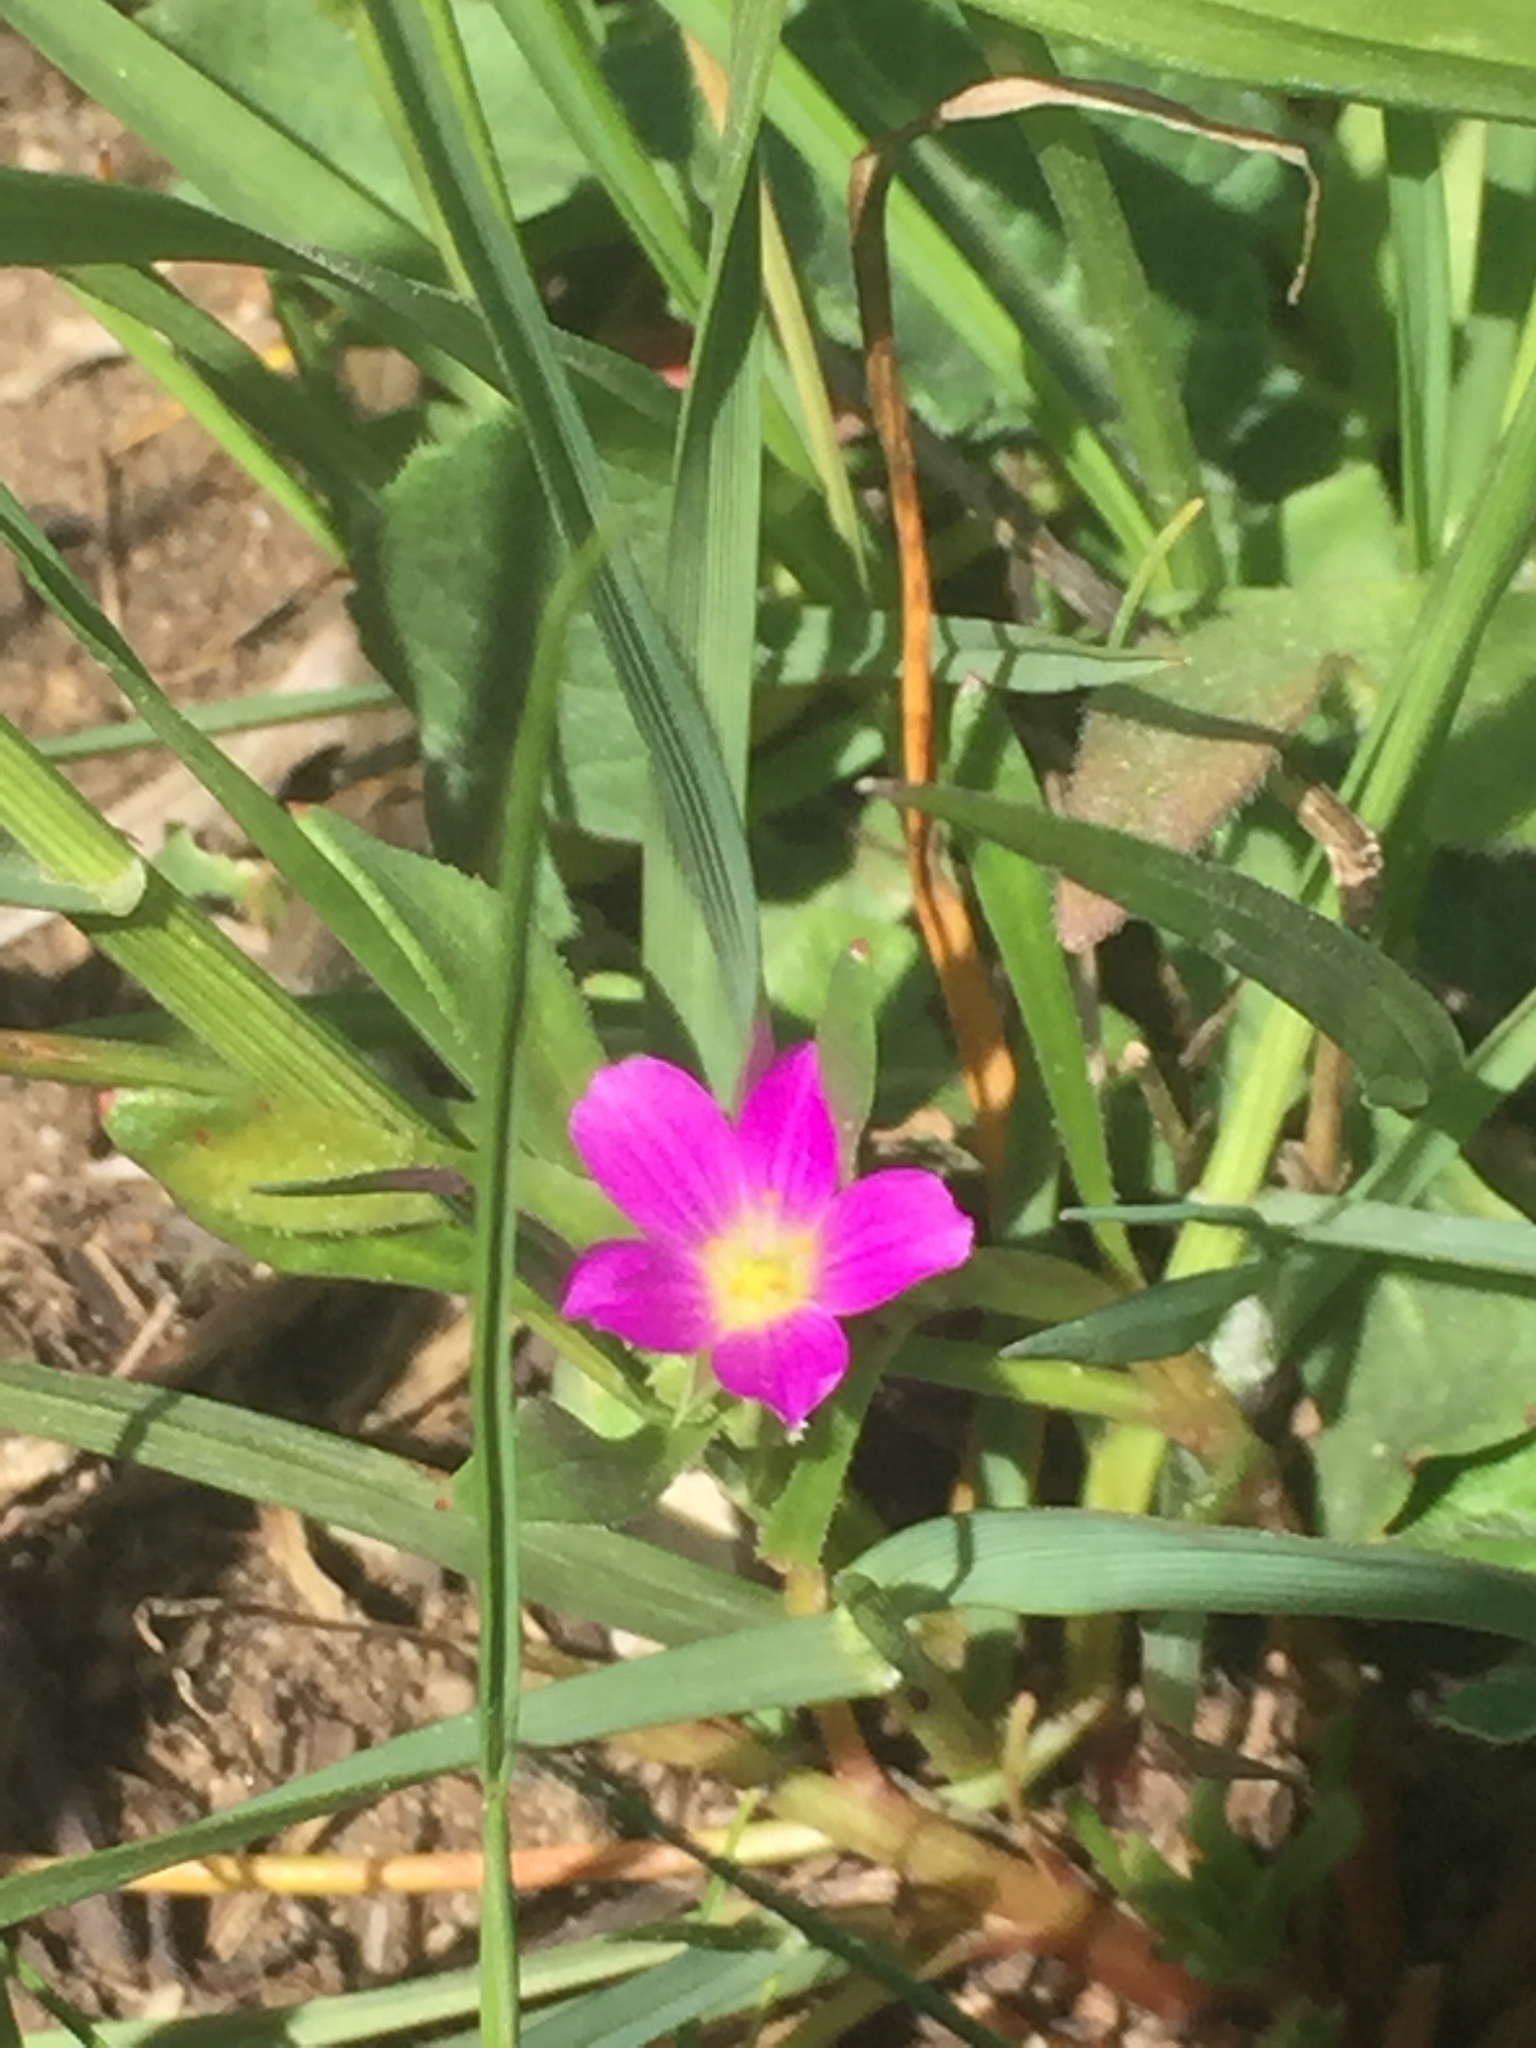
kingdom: Plantae
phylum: Tracheophyta
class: Magnoliopsida
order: Caryophyllales
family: Montiaceae
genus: Calandrinia
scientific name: Calandrinia menziesii
